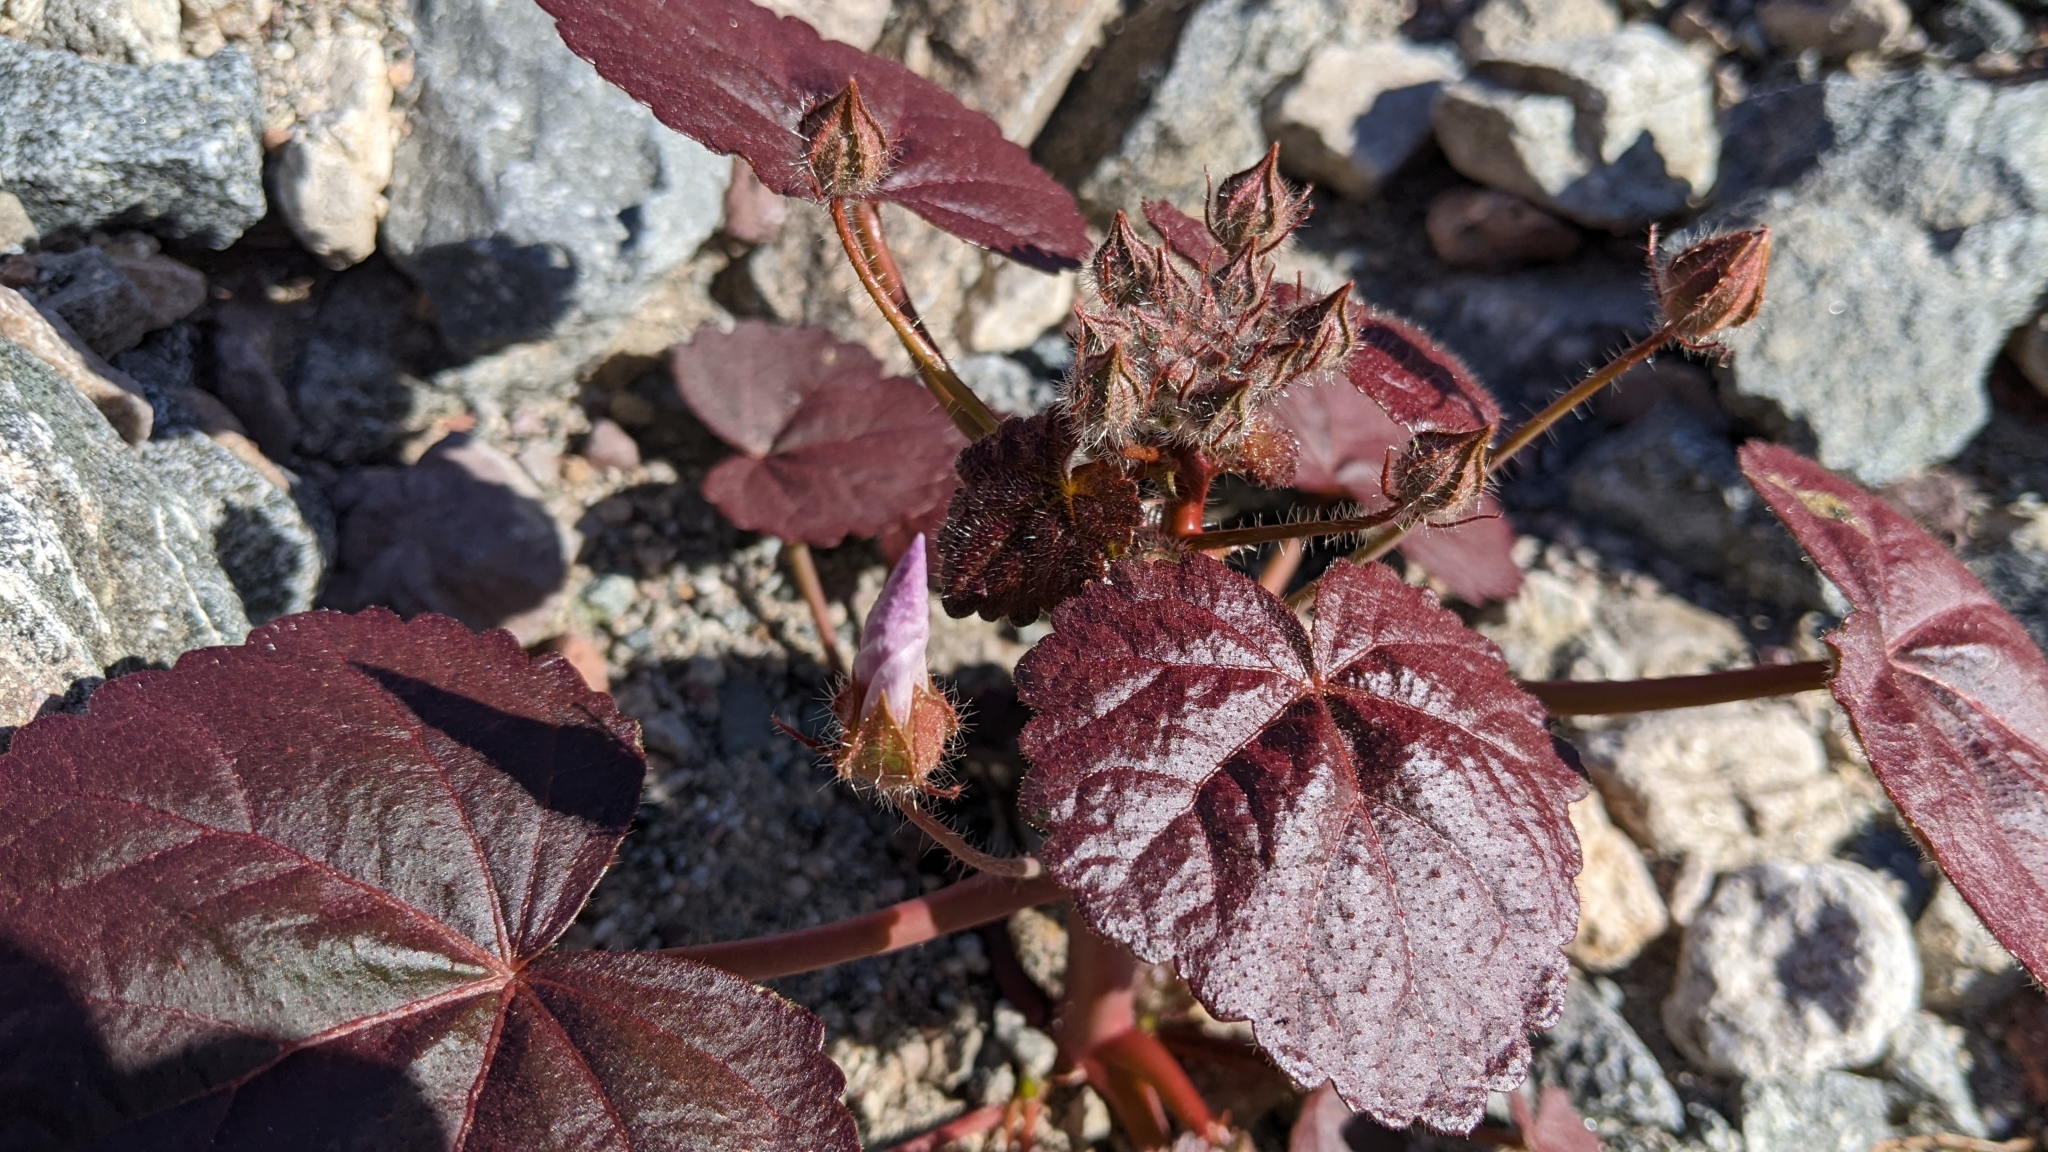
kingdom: Plantae
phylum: Tracheophyta
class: Magnoliopsida
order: Malvales
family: Malvaceae
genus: Eremalche
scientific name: Eremalche rotundifolia
